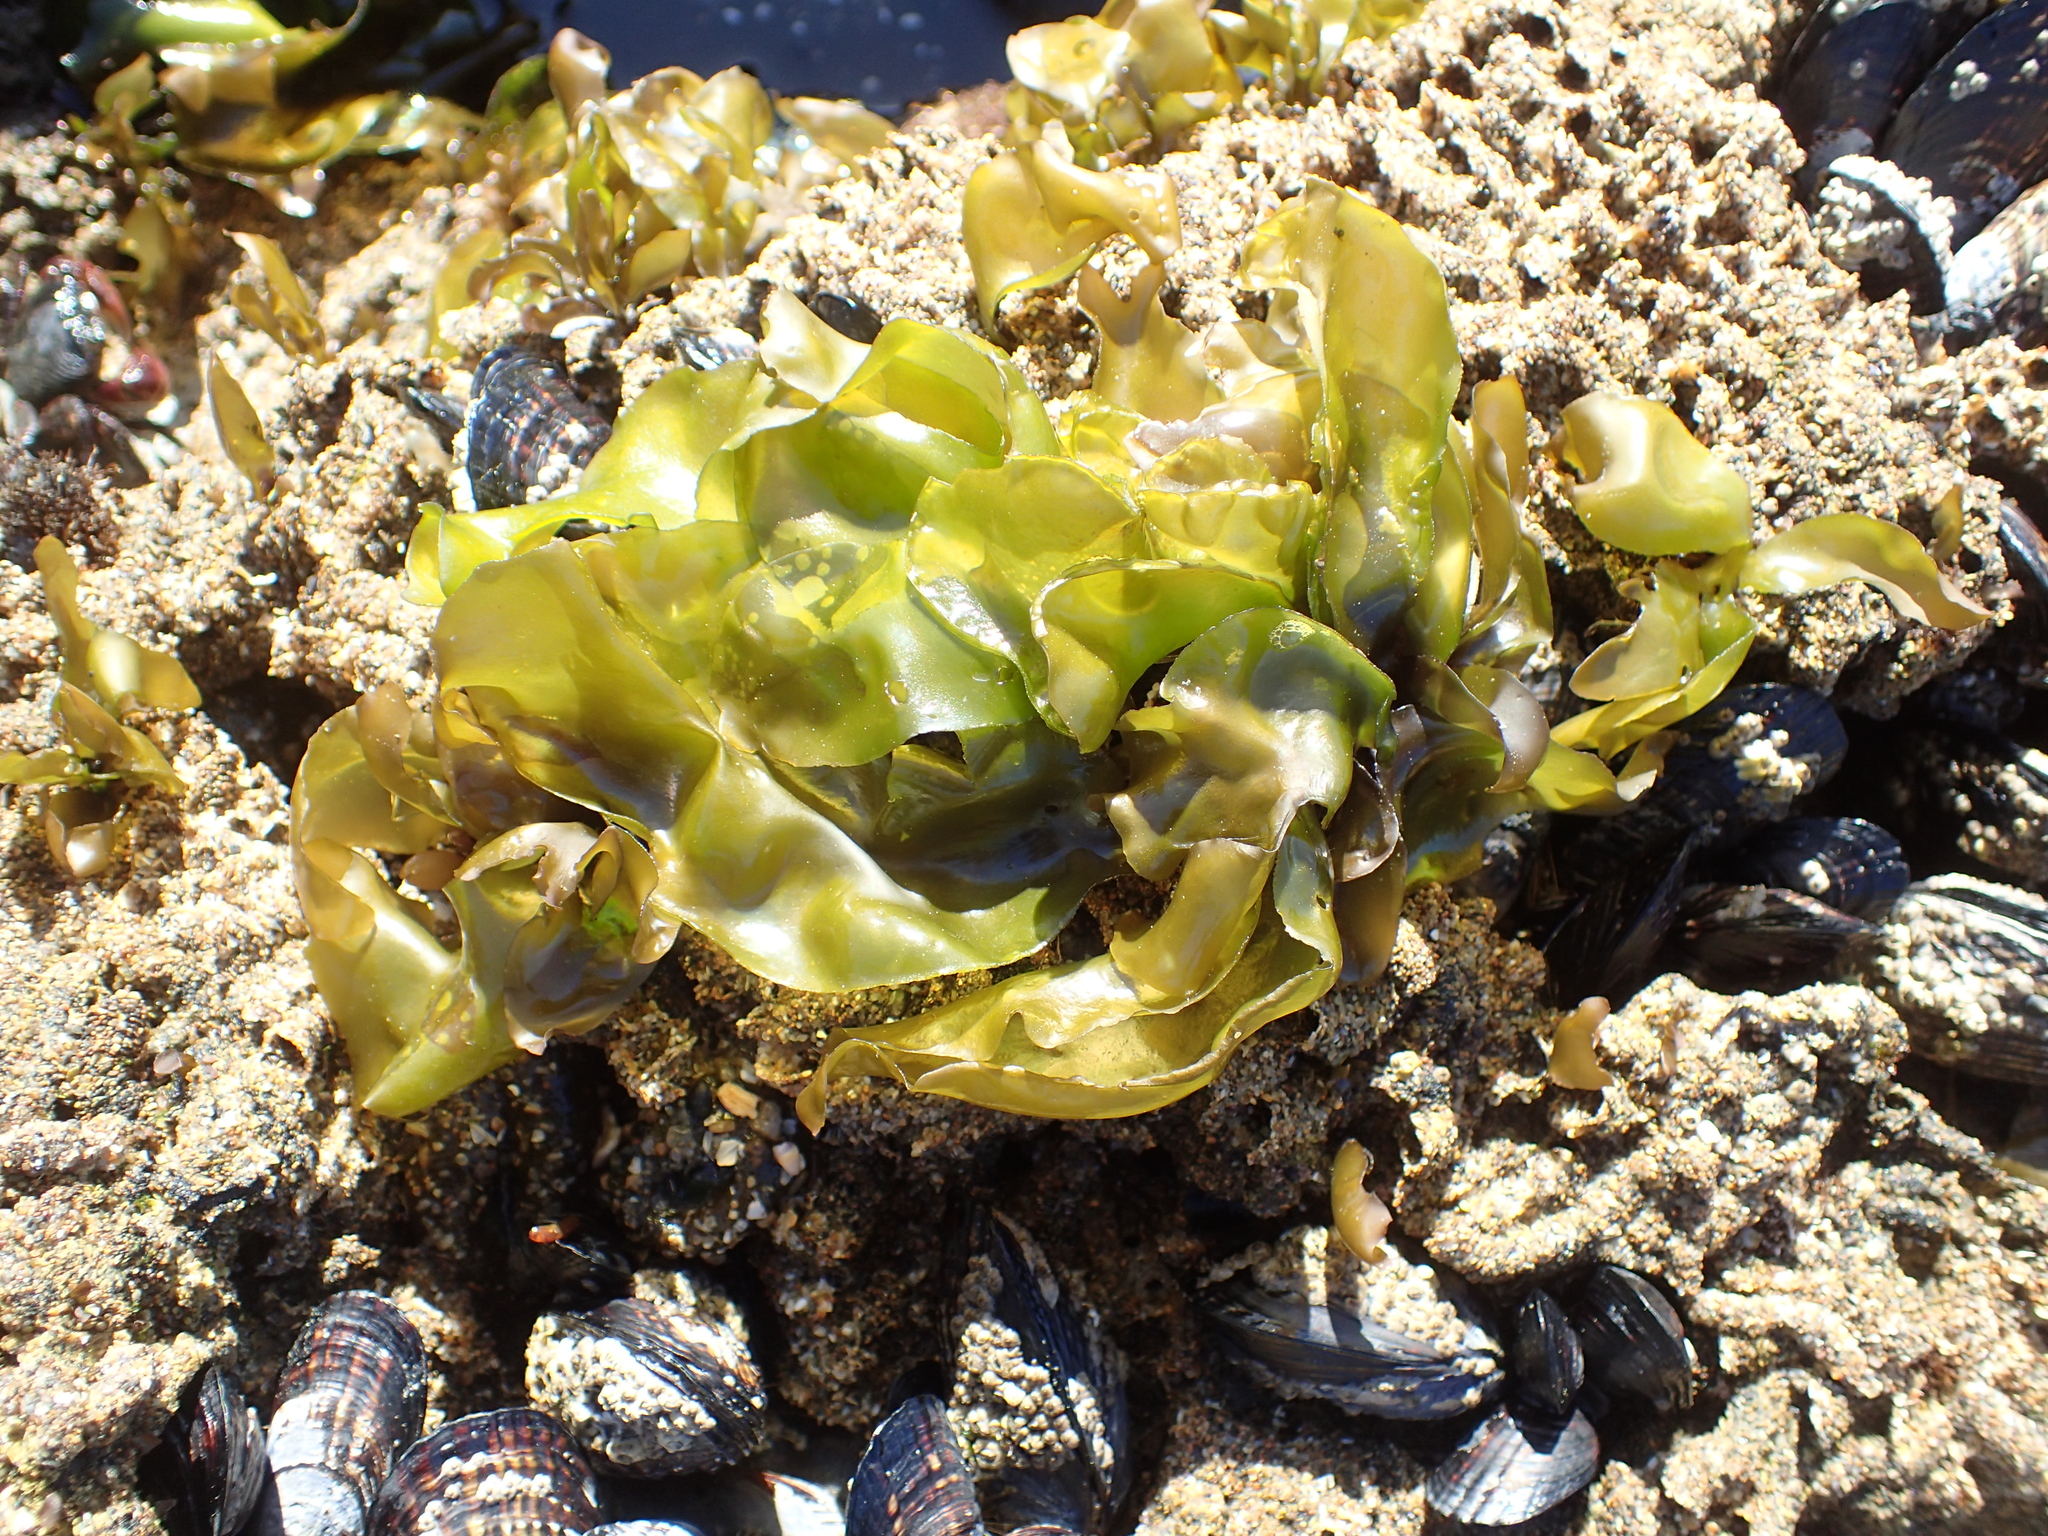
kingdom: Plantae
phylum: Rhodophyta
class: Florideophyceae
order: Gigartinales
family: Gigartinaceae
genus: Mazzaella
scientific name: Mazzaella flaccida
